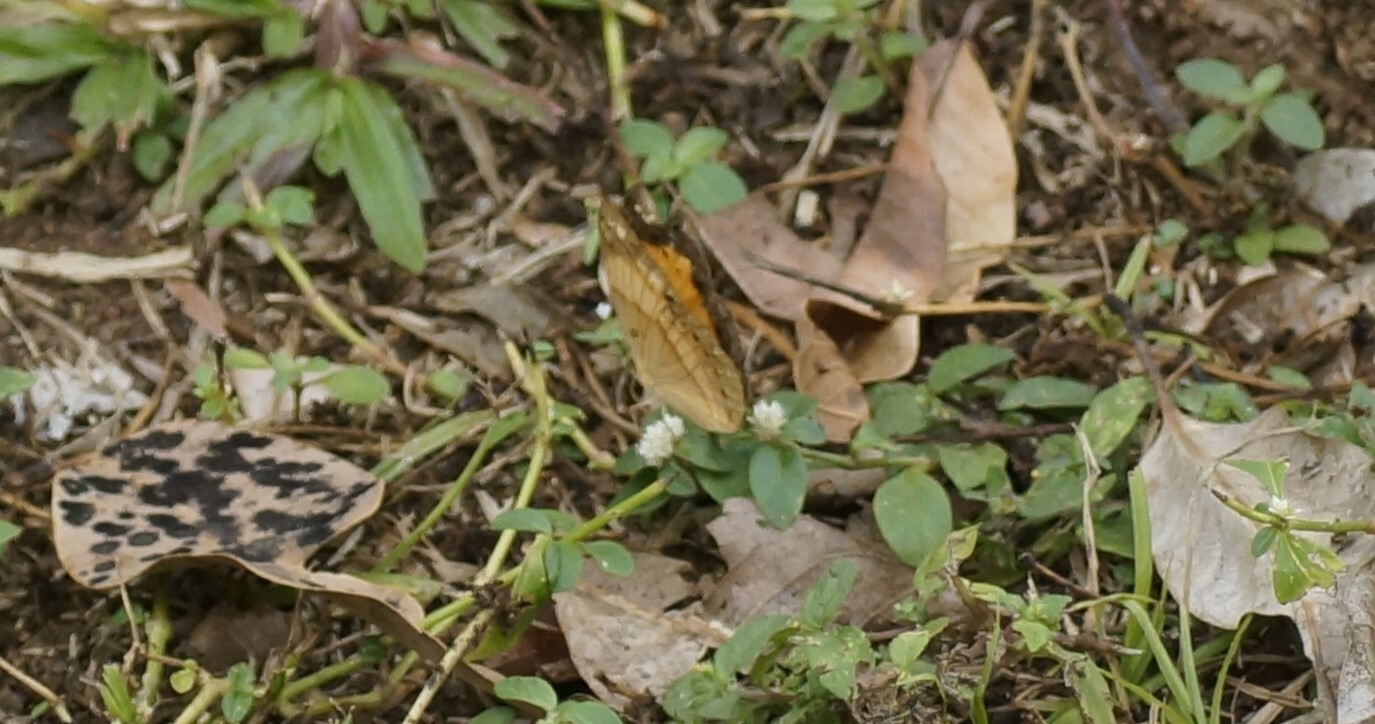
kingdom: Animalia
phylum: Arthropoda
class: Insecta
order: Lepidoptera
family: Nymphalidae
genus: Cupha
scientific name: Cupha prosope
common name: Bordered rustic
